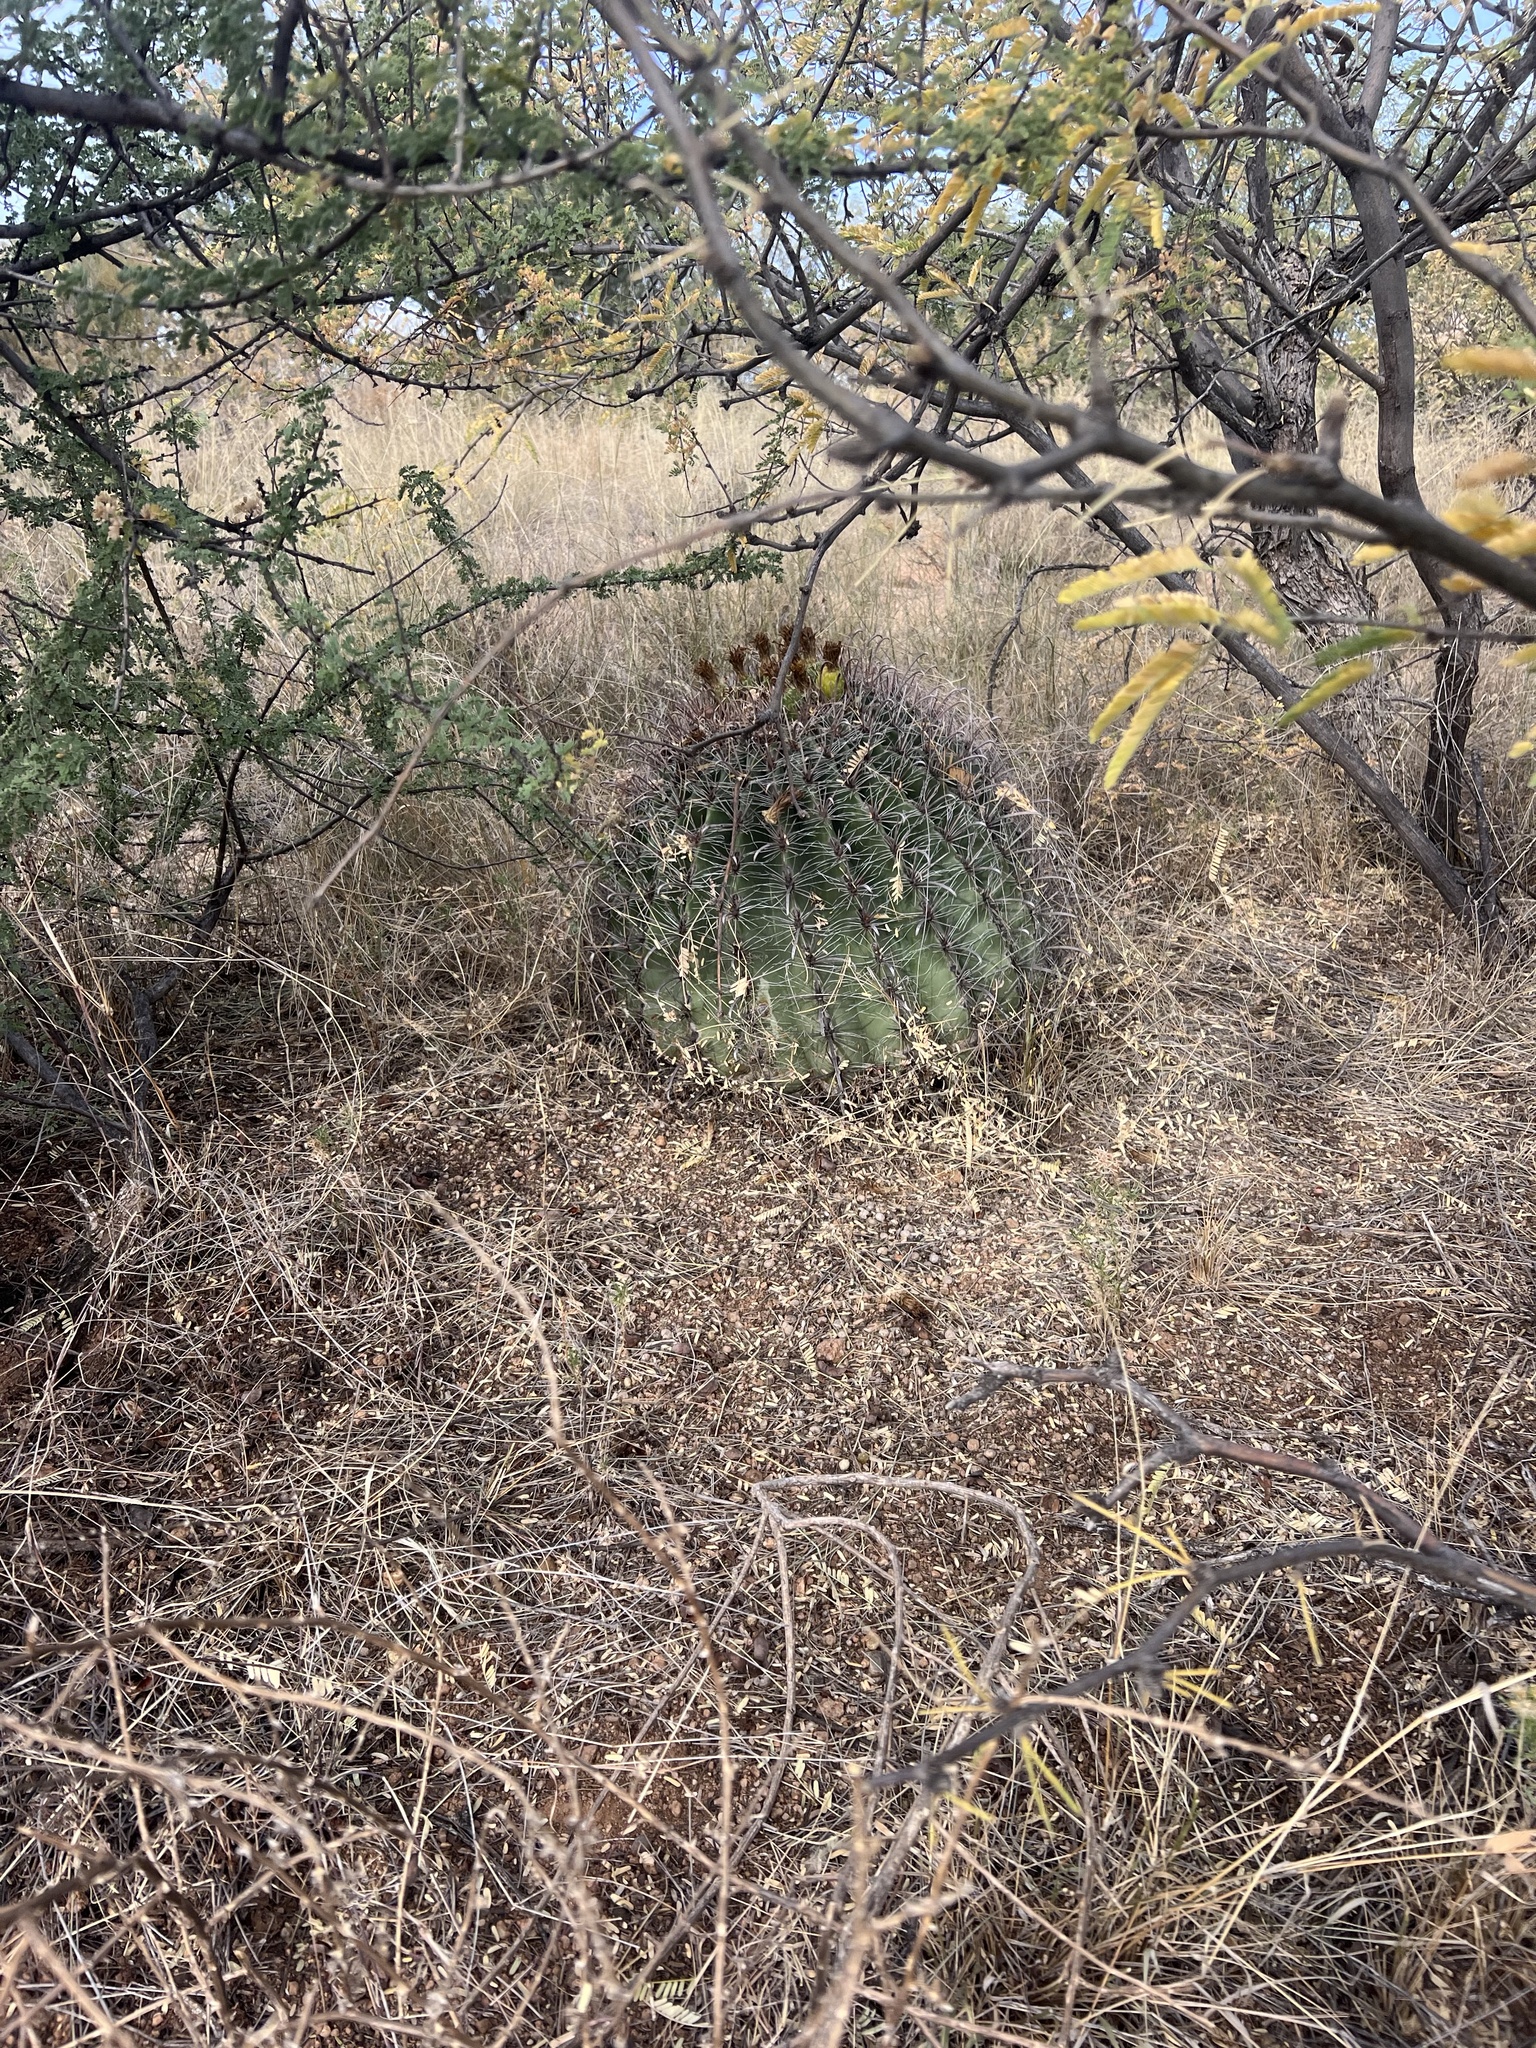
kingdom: Plantae
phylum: Tracheophyta
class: Magnoliopsida
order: Caryophyllales
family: Cactaceae
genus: Ferocactus
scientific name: Ferocactus wislizeni
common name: Candy barrel cactus
